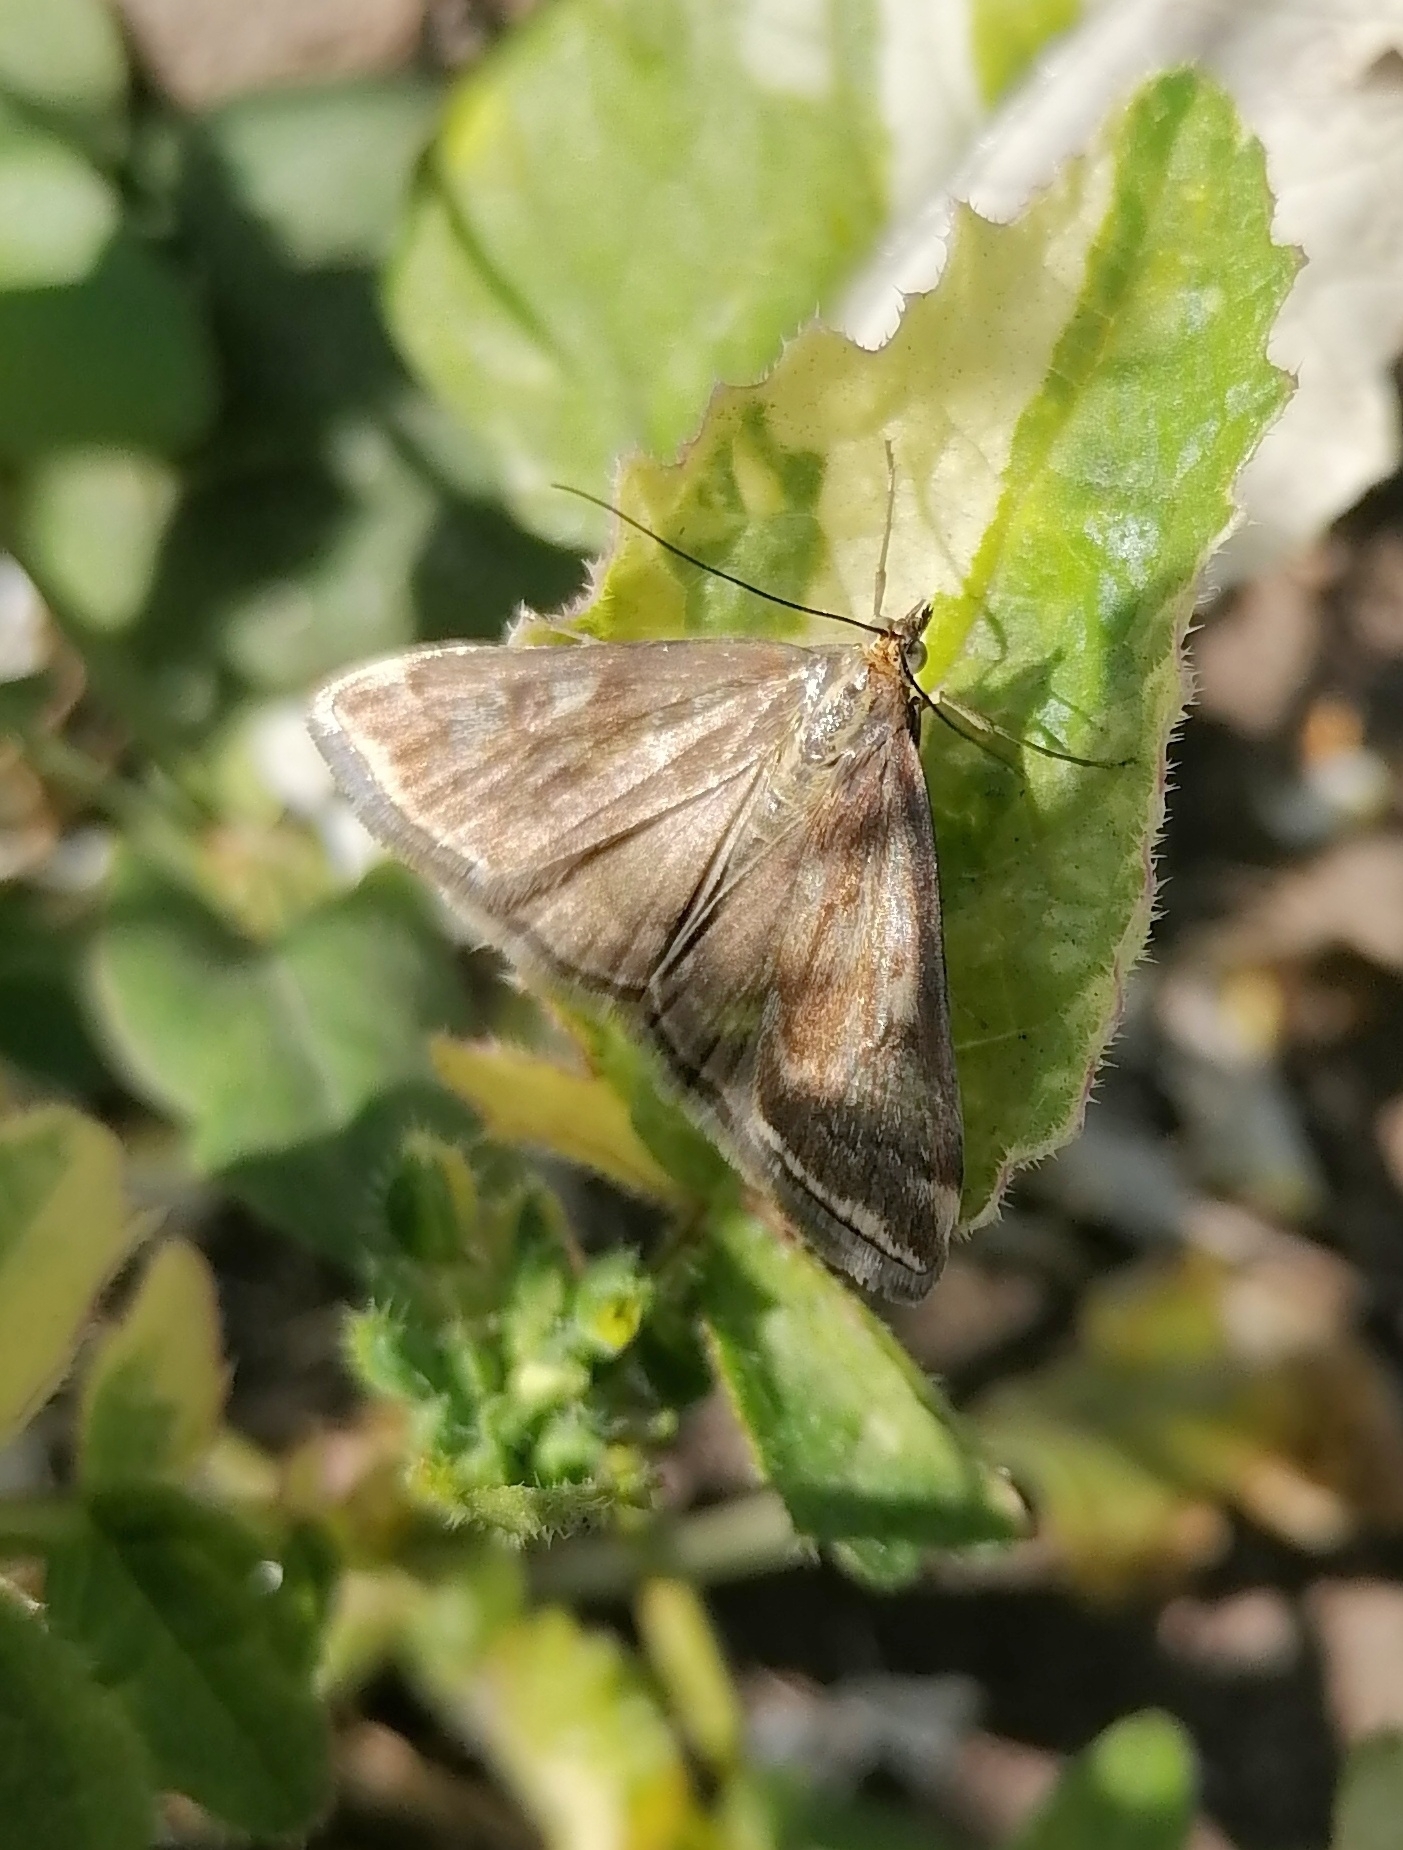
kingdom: Animalia
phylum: Arthropoda
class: Insecta
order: Lepidoptera
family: Crambidae
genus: Loxostege
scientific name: Loxostege sticticalis
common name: Crambid moth
